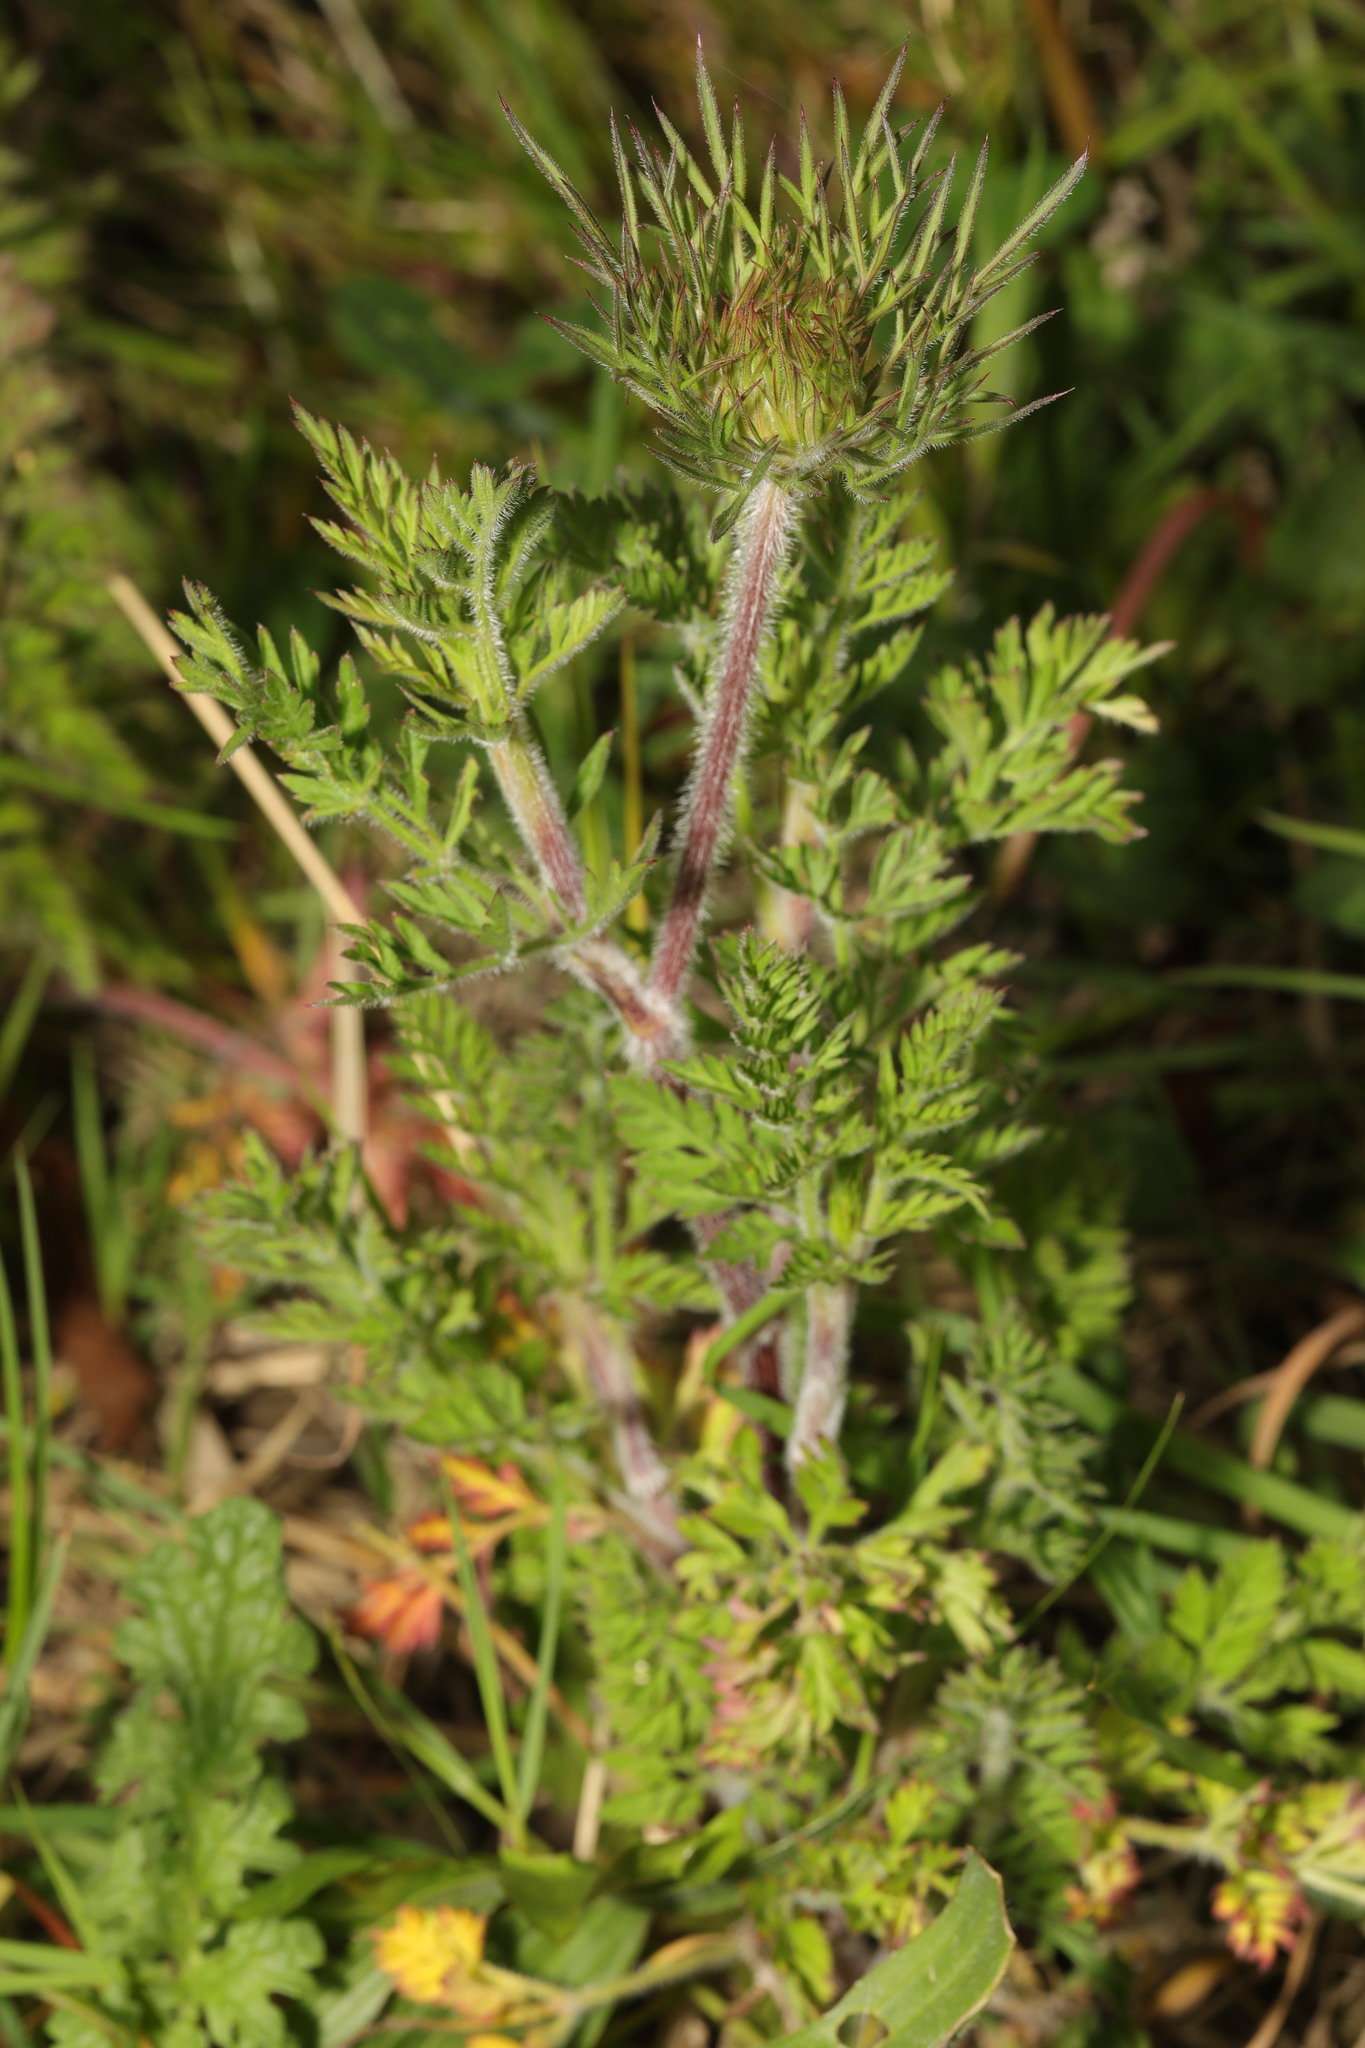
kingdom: Plantae
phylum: Tracheophyta
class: Magnoliopsida
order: Apiales
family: Apiaceae
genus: Daucus
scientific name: Daucus carota
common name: Wild carrot
